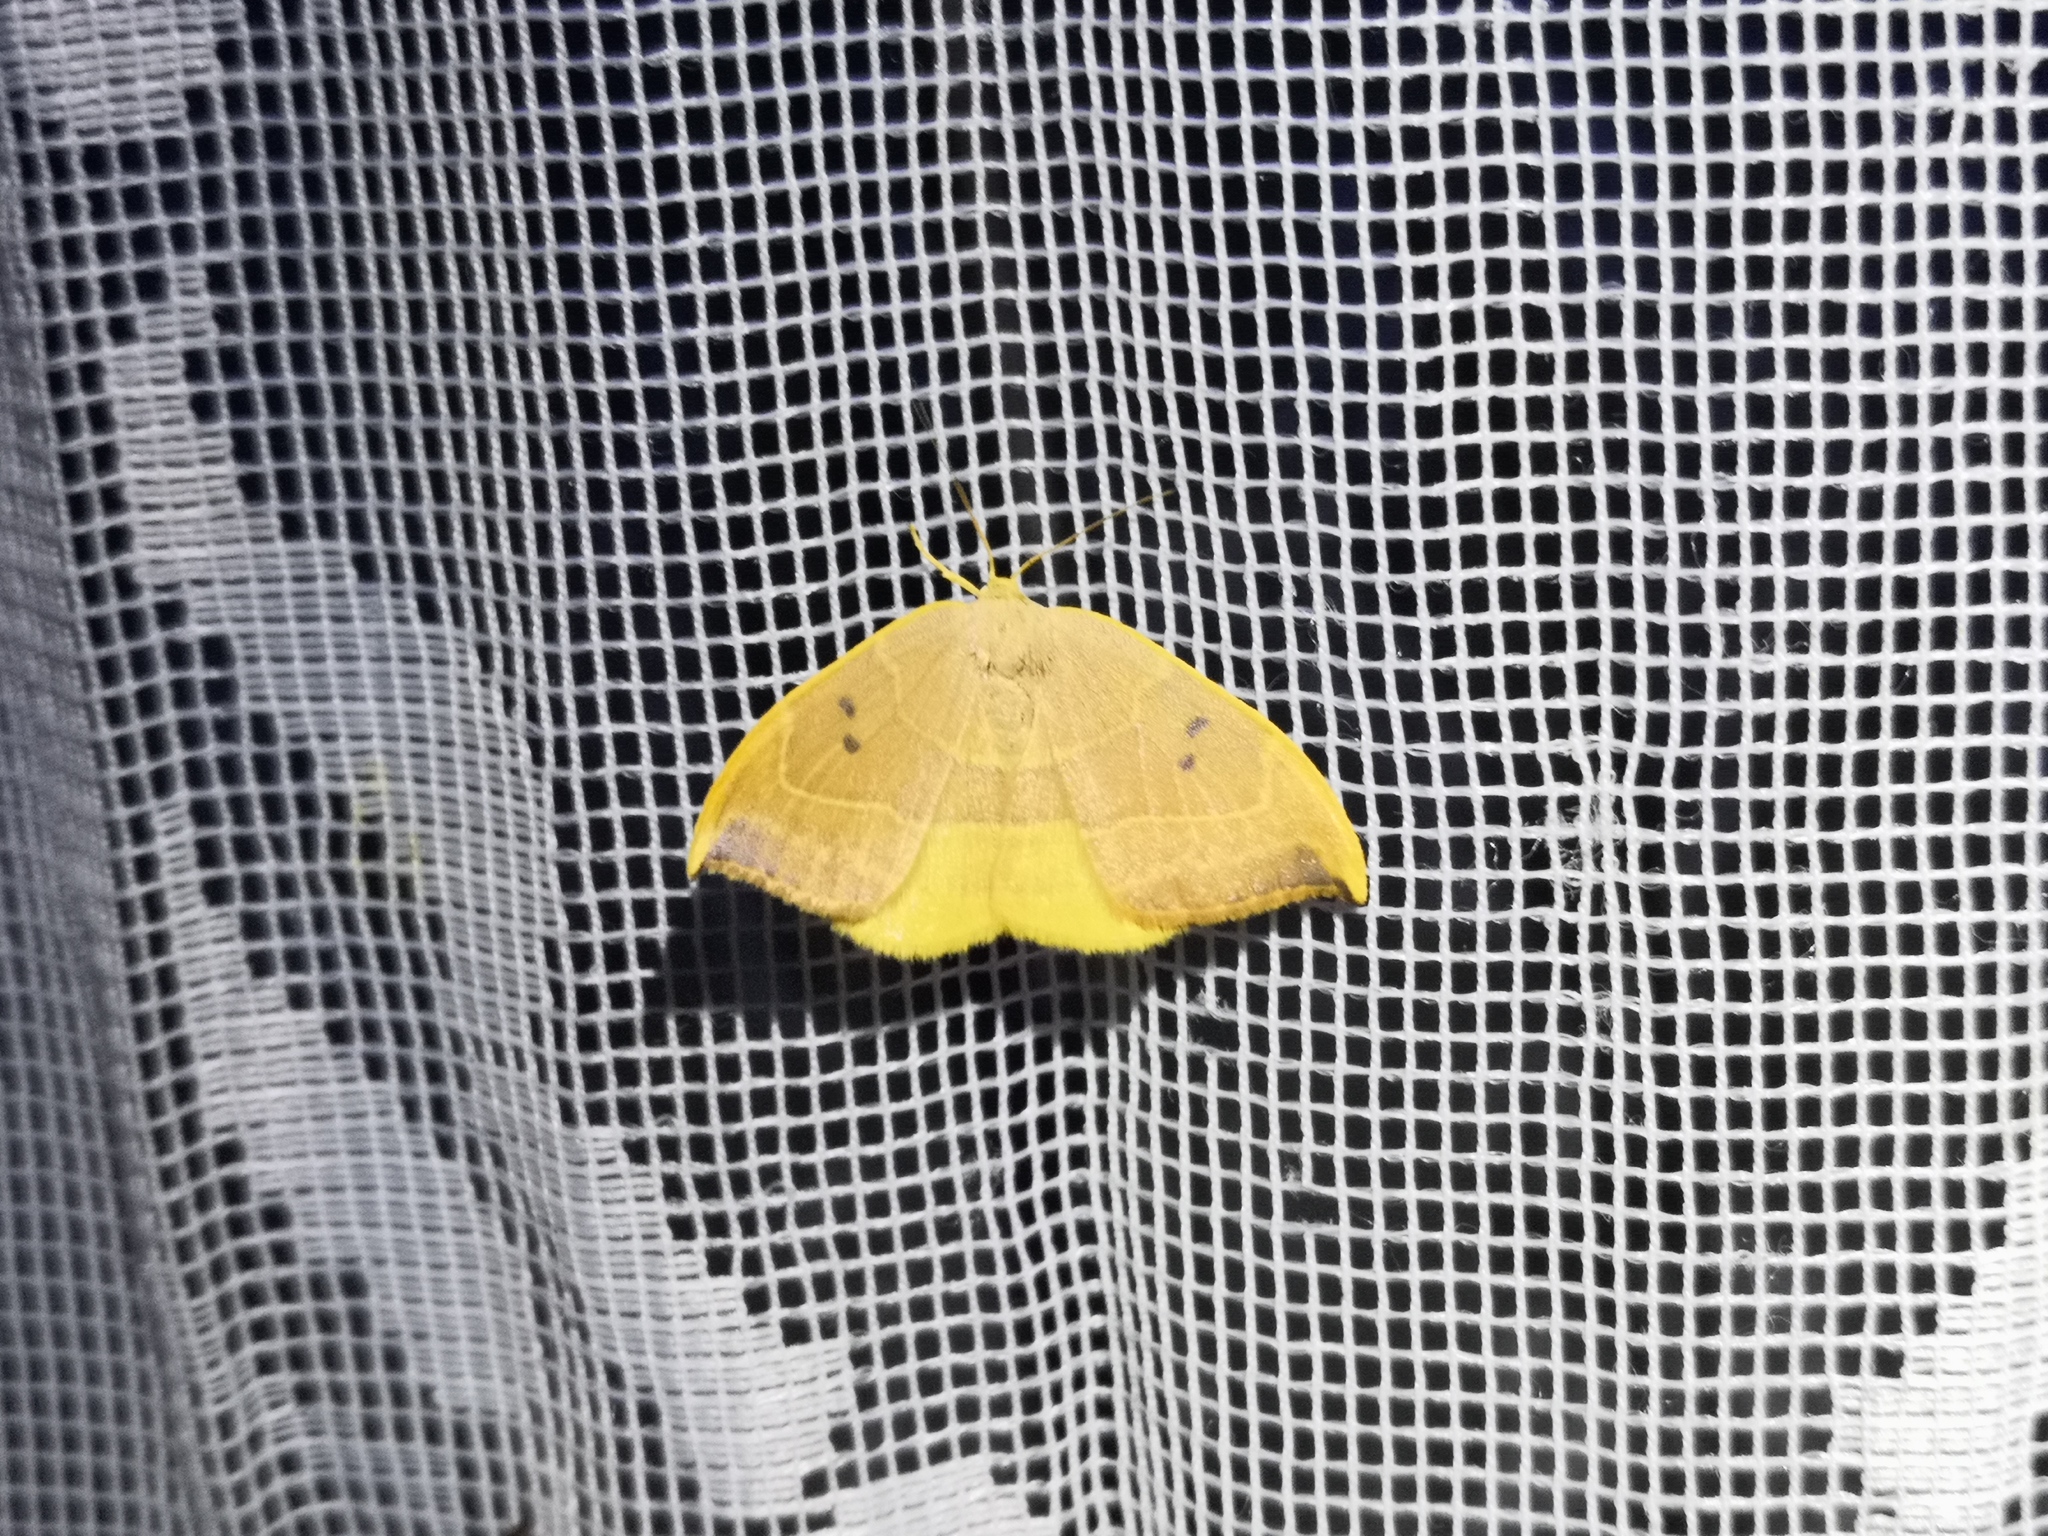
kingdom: Animalia
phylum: Arthropoda
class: Insecta
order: Lepidoptera
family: Drepanidae
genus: Watsonalla
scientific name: Watsonalla binaria
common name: Oak hook-tip
